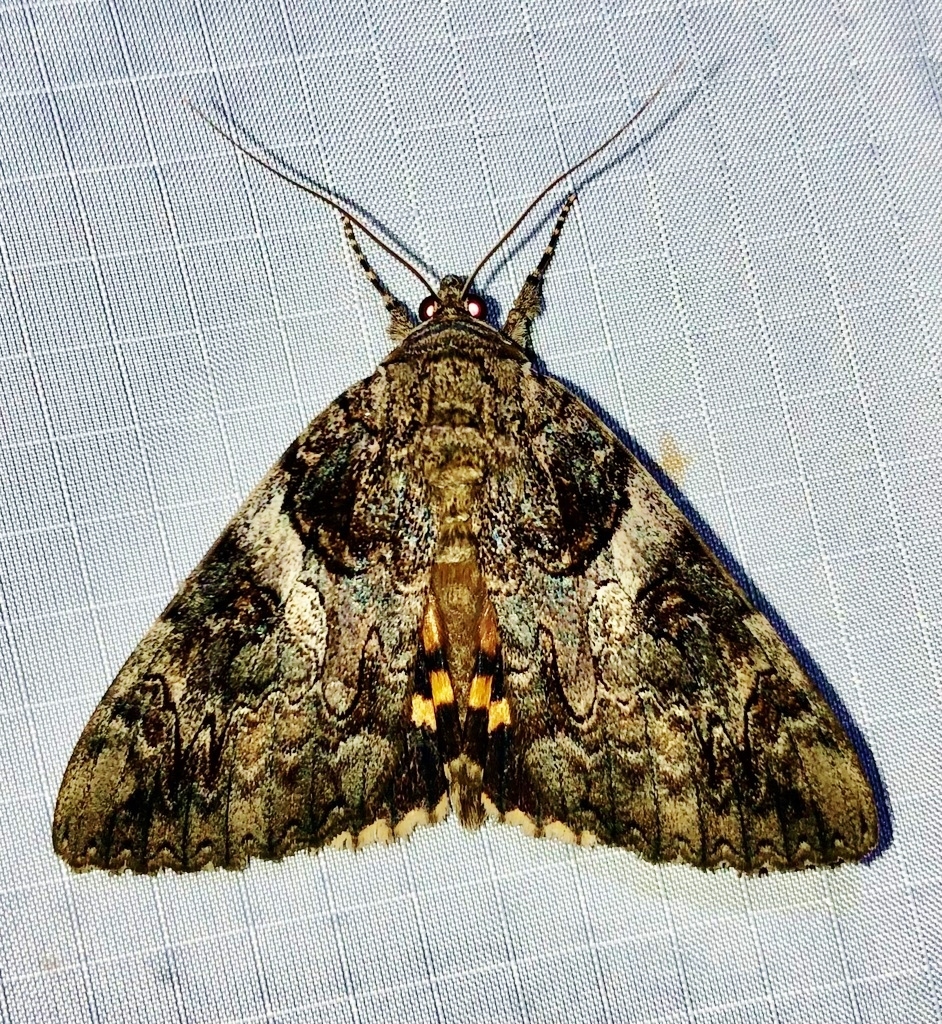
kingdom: Animalia
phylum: Arthropoda
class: Insecta
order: Lepidoptera
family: Erebidae
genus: Catocala
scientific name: Catocala piatrix
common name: The penitent underwing
